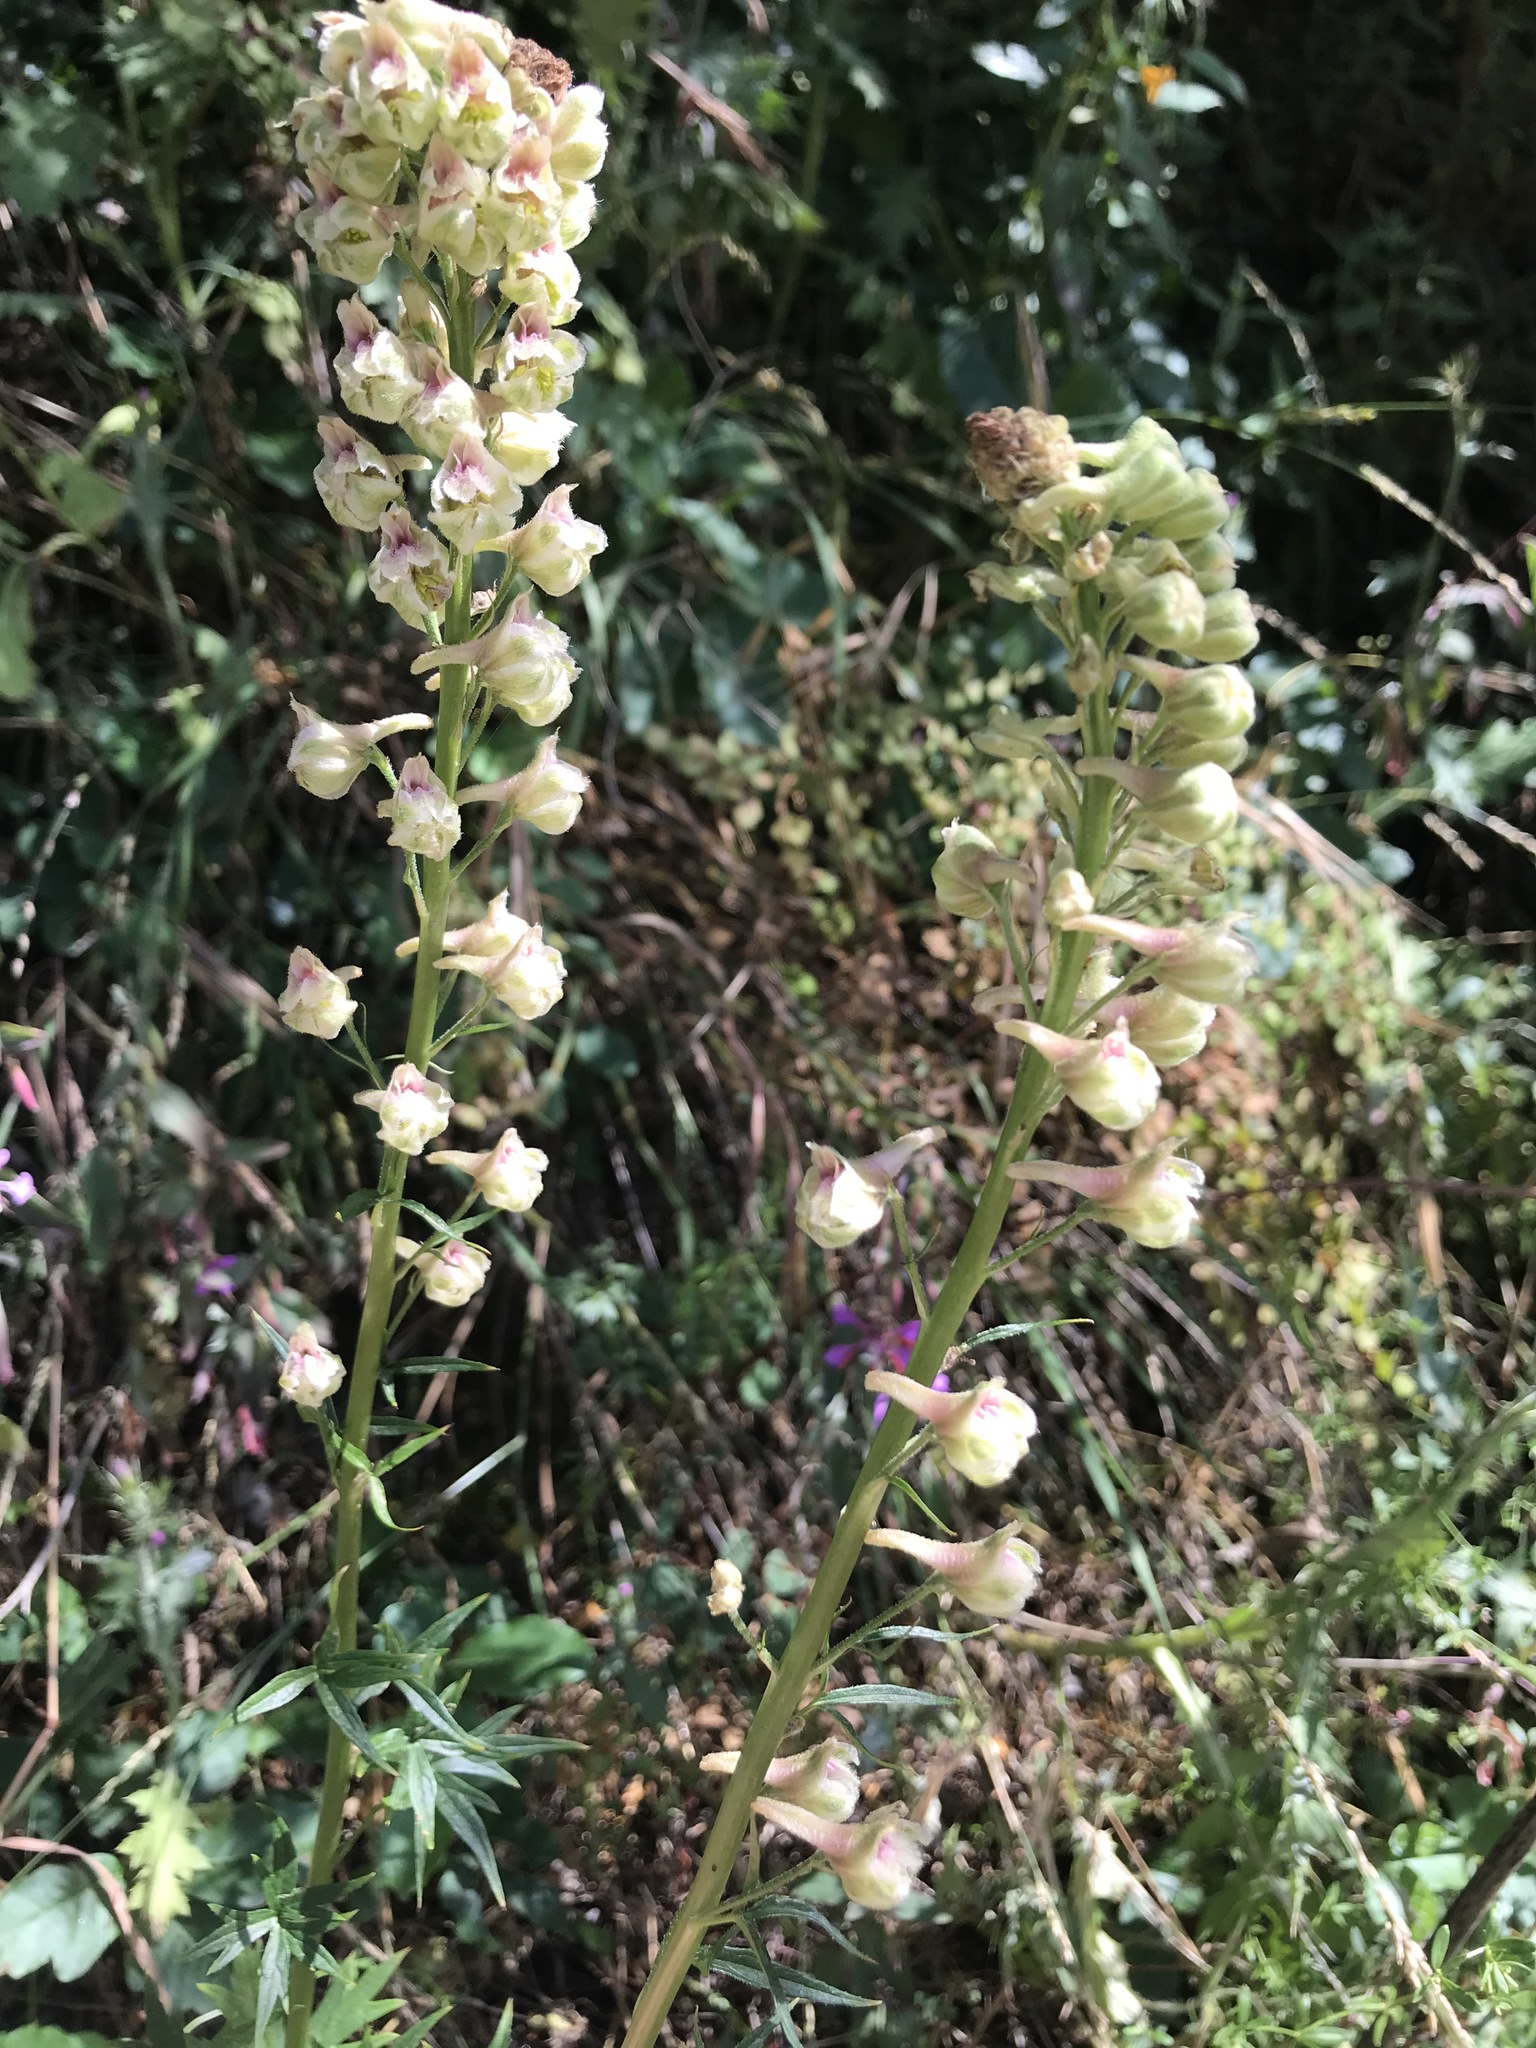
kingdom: Plantae
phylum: Tracheophyta
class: Magnoliopsida
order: Ranunculales
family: Ranunculaceae
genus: Delphinium
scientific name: Delphinium californicum
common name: California larkspur
